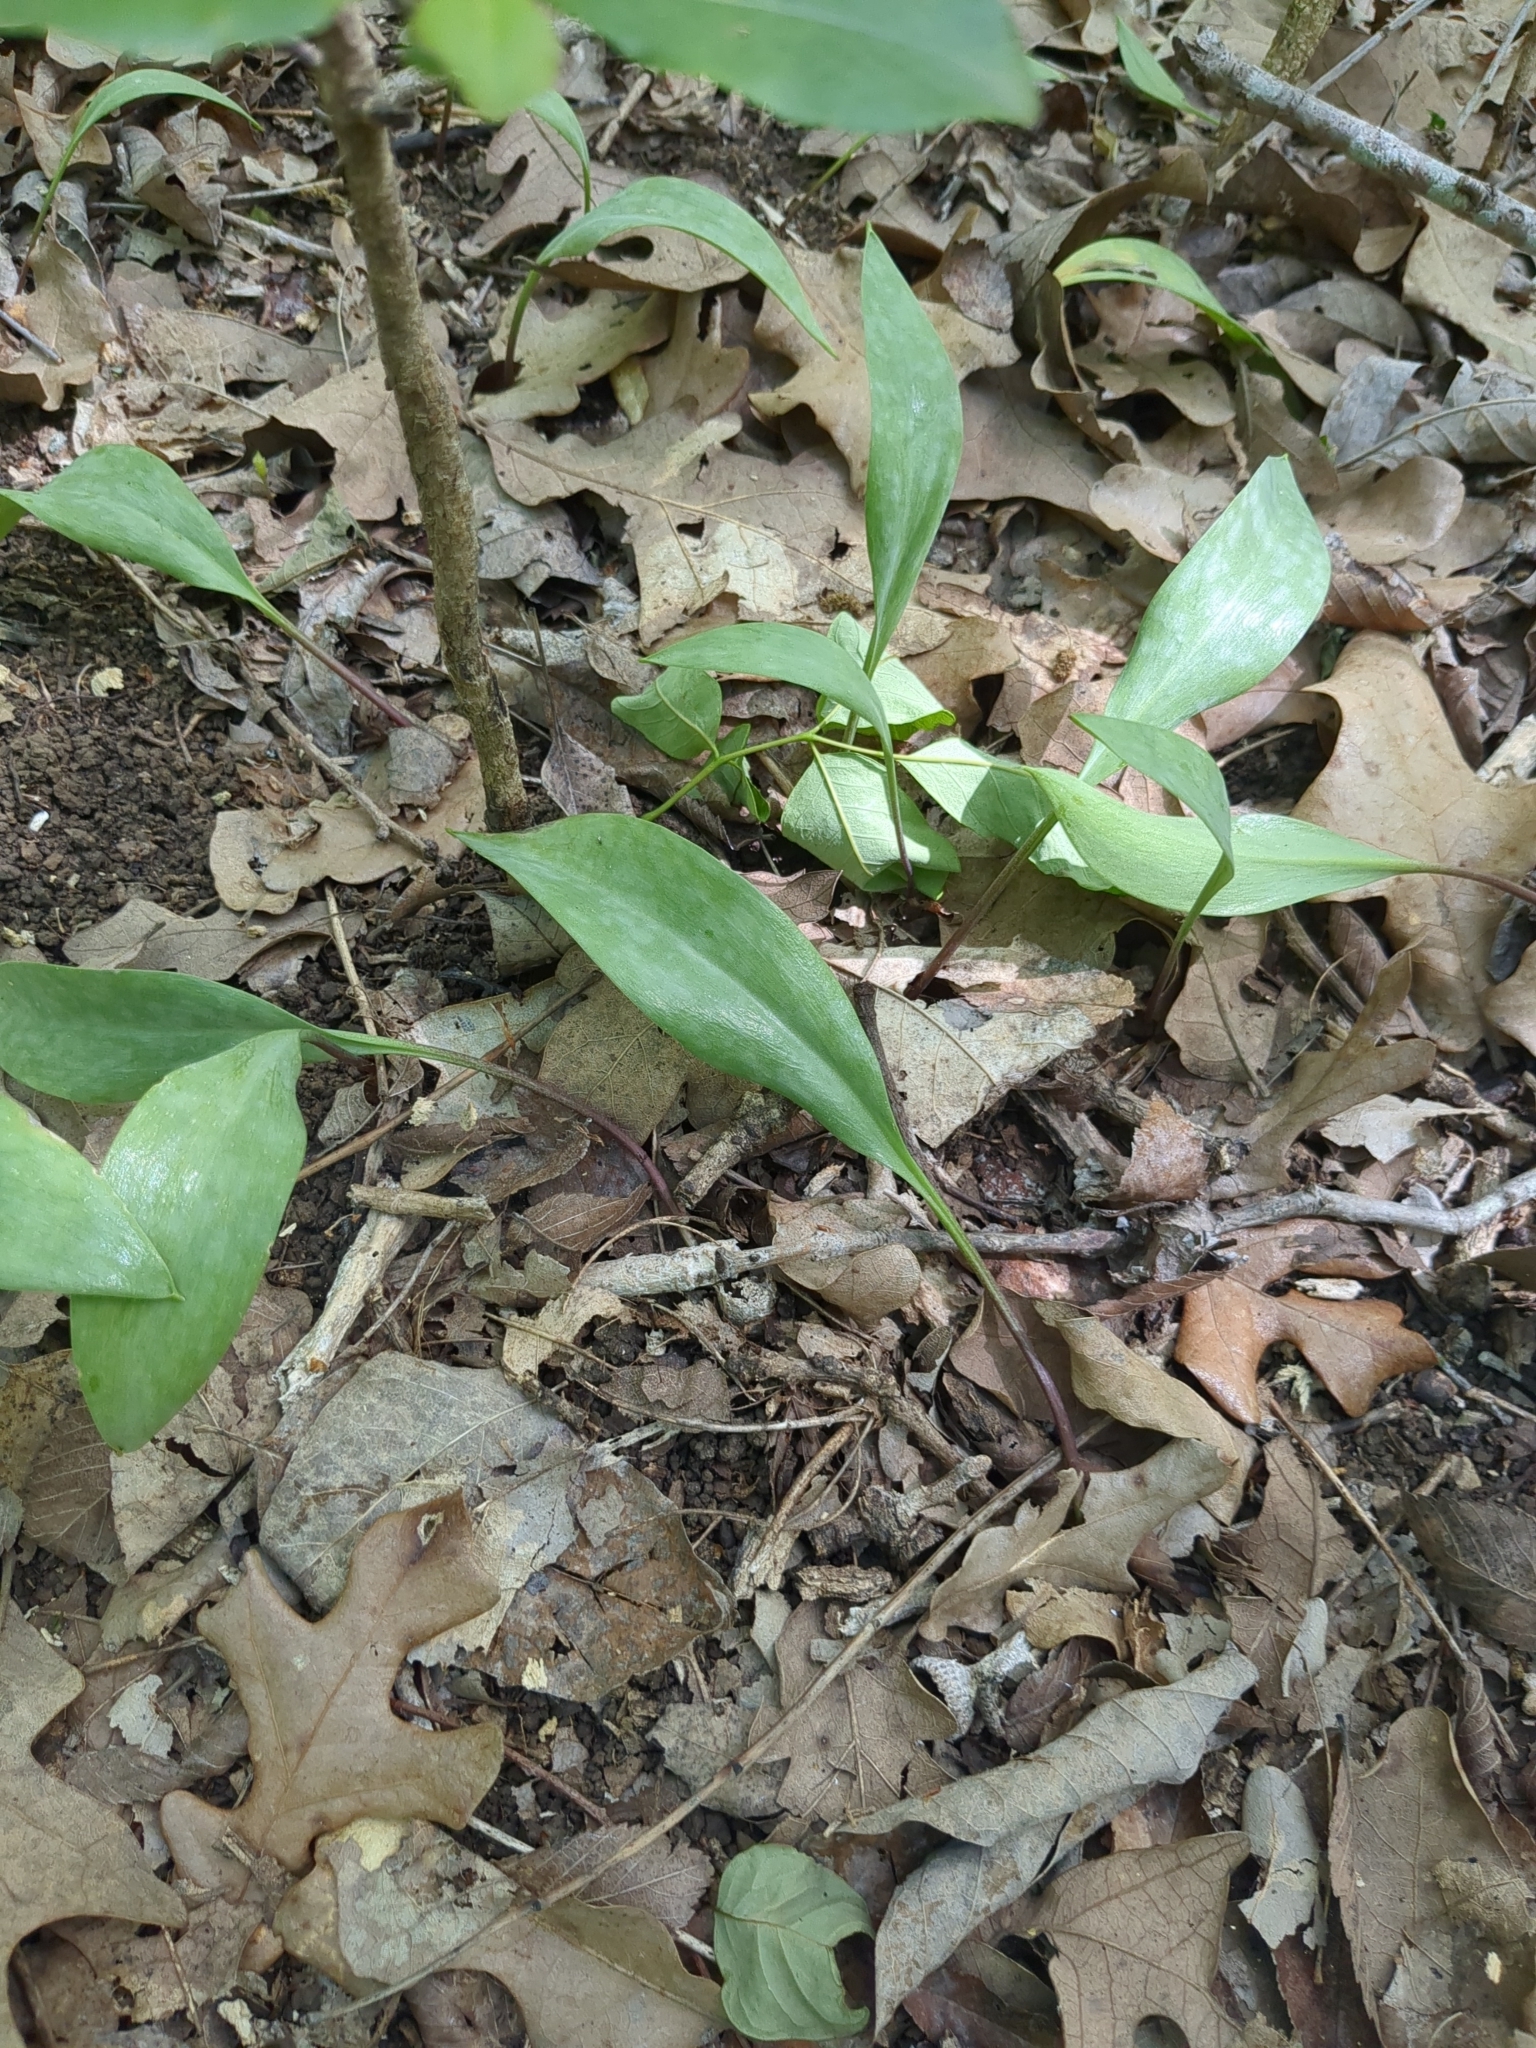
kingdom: Plantae
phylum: Tracheophyta
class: Liliopsida
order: Liliales
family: Liliaceae
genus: Erythronium
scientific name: Erythronium albidum
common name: White trout-lily
